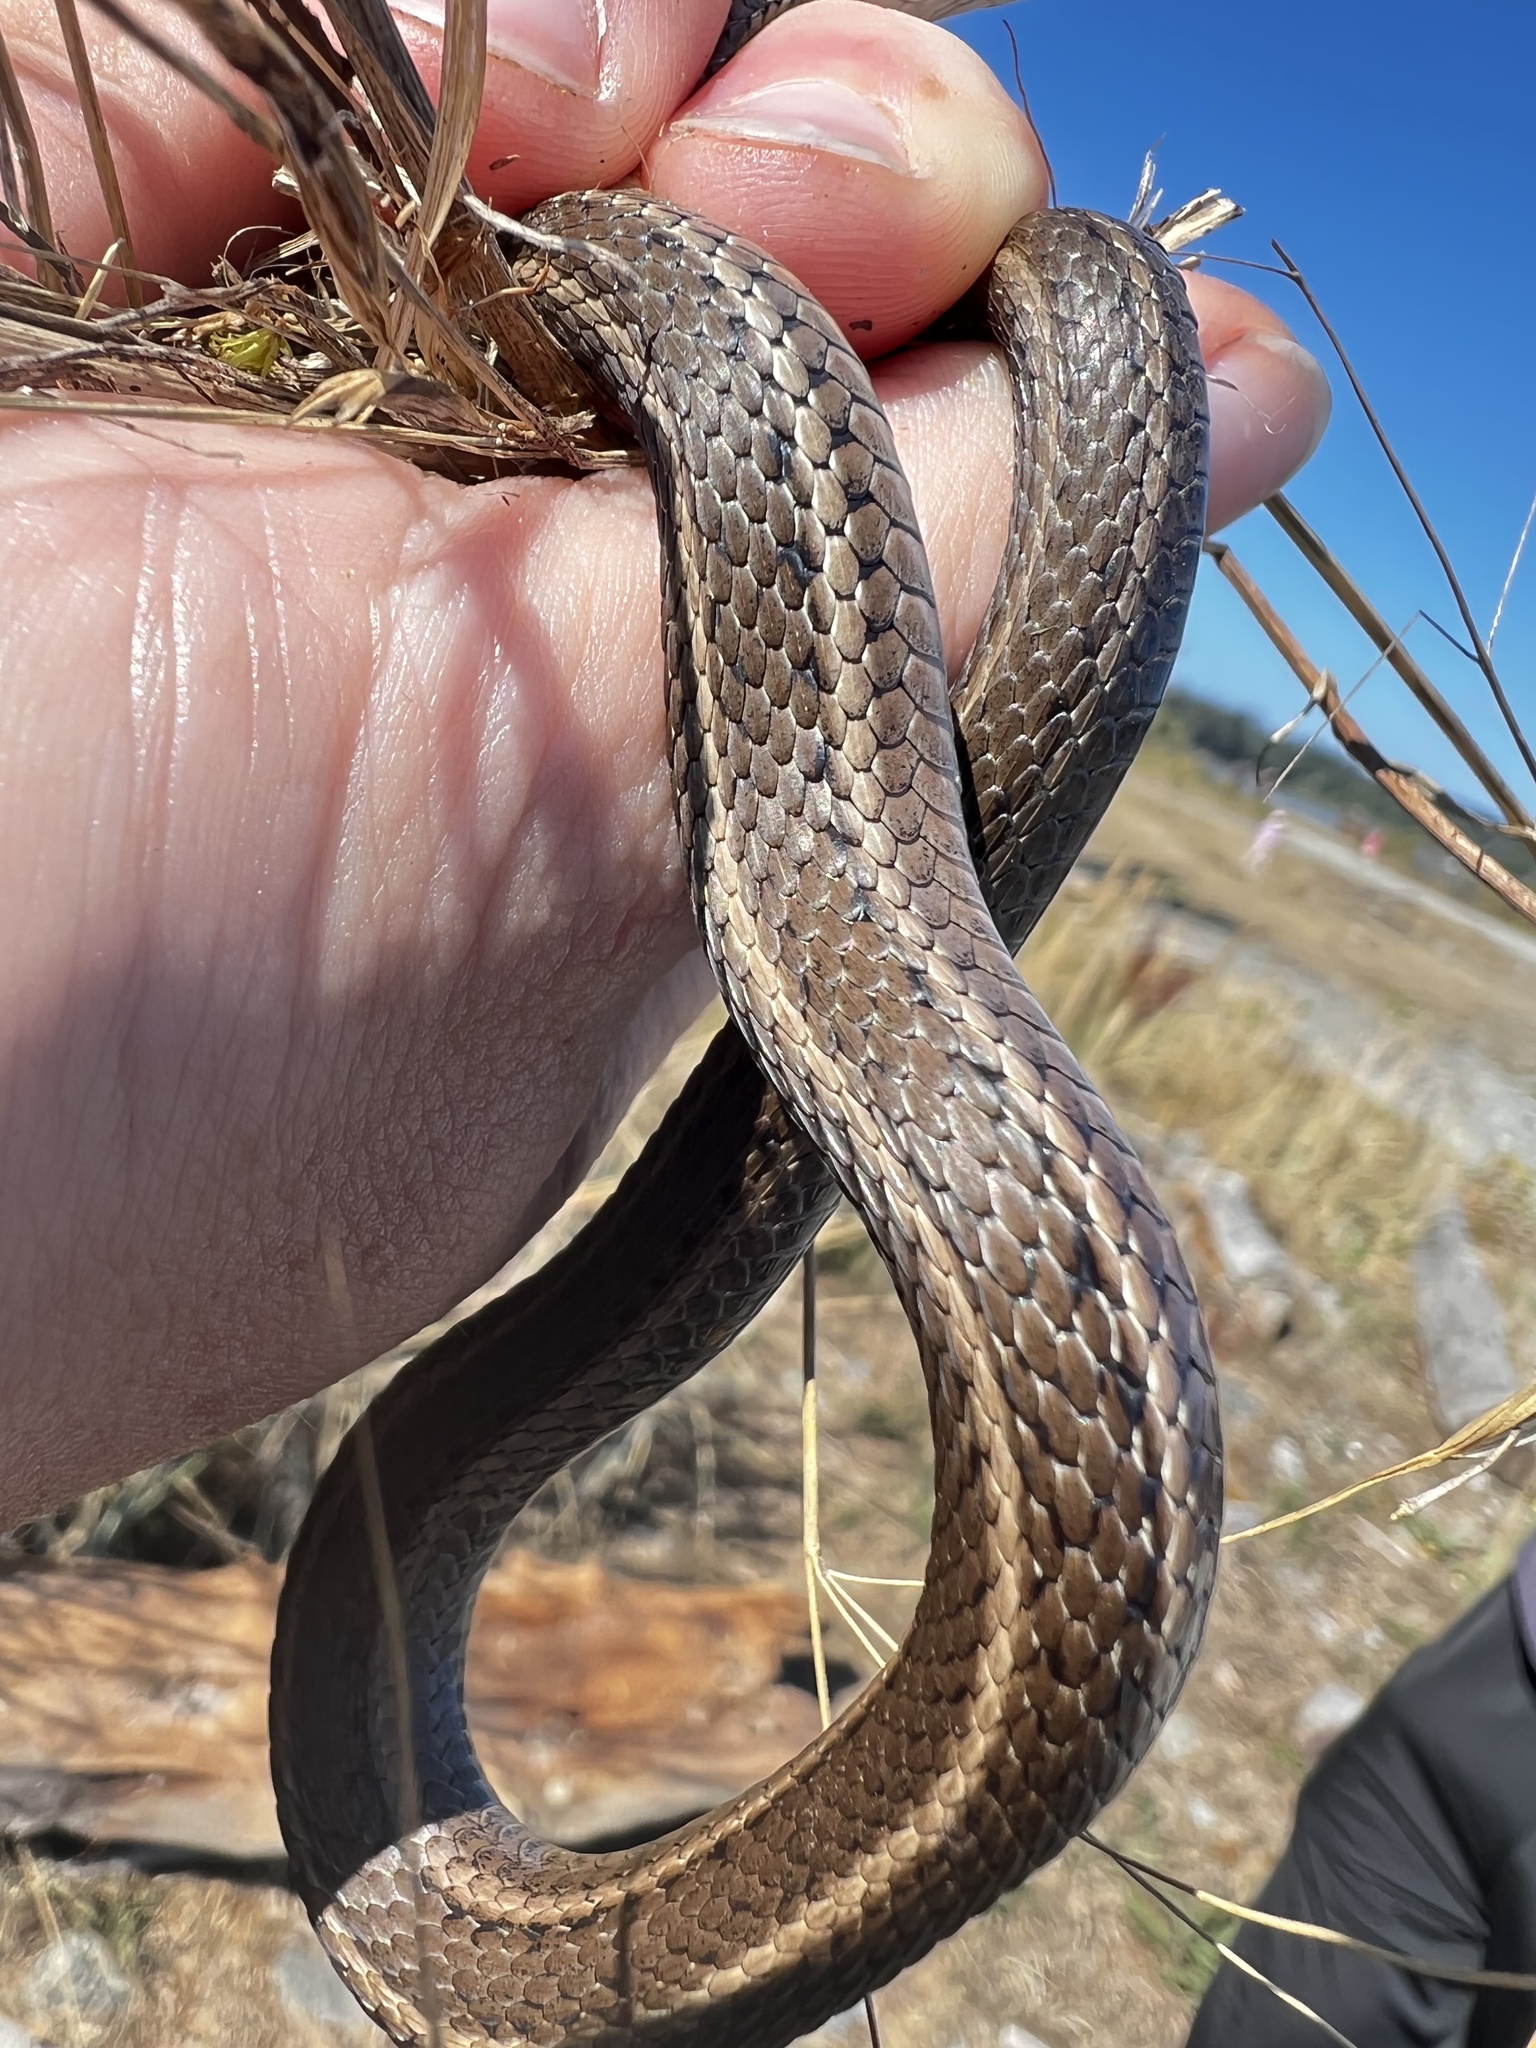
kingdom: Animalia
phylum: Chordata
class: Squamata
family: Colubridae
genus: Thamnophis
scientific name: Thamnophis ordinoides
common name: Northwestern garter snake
